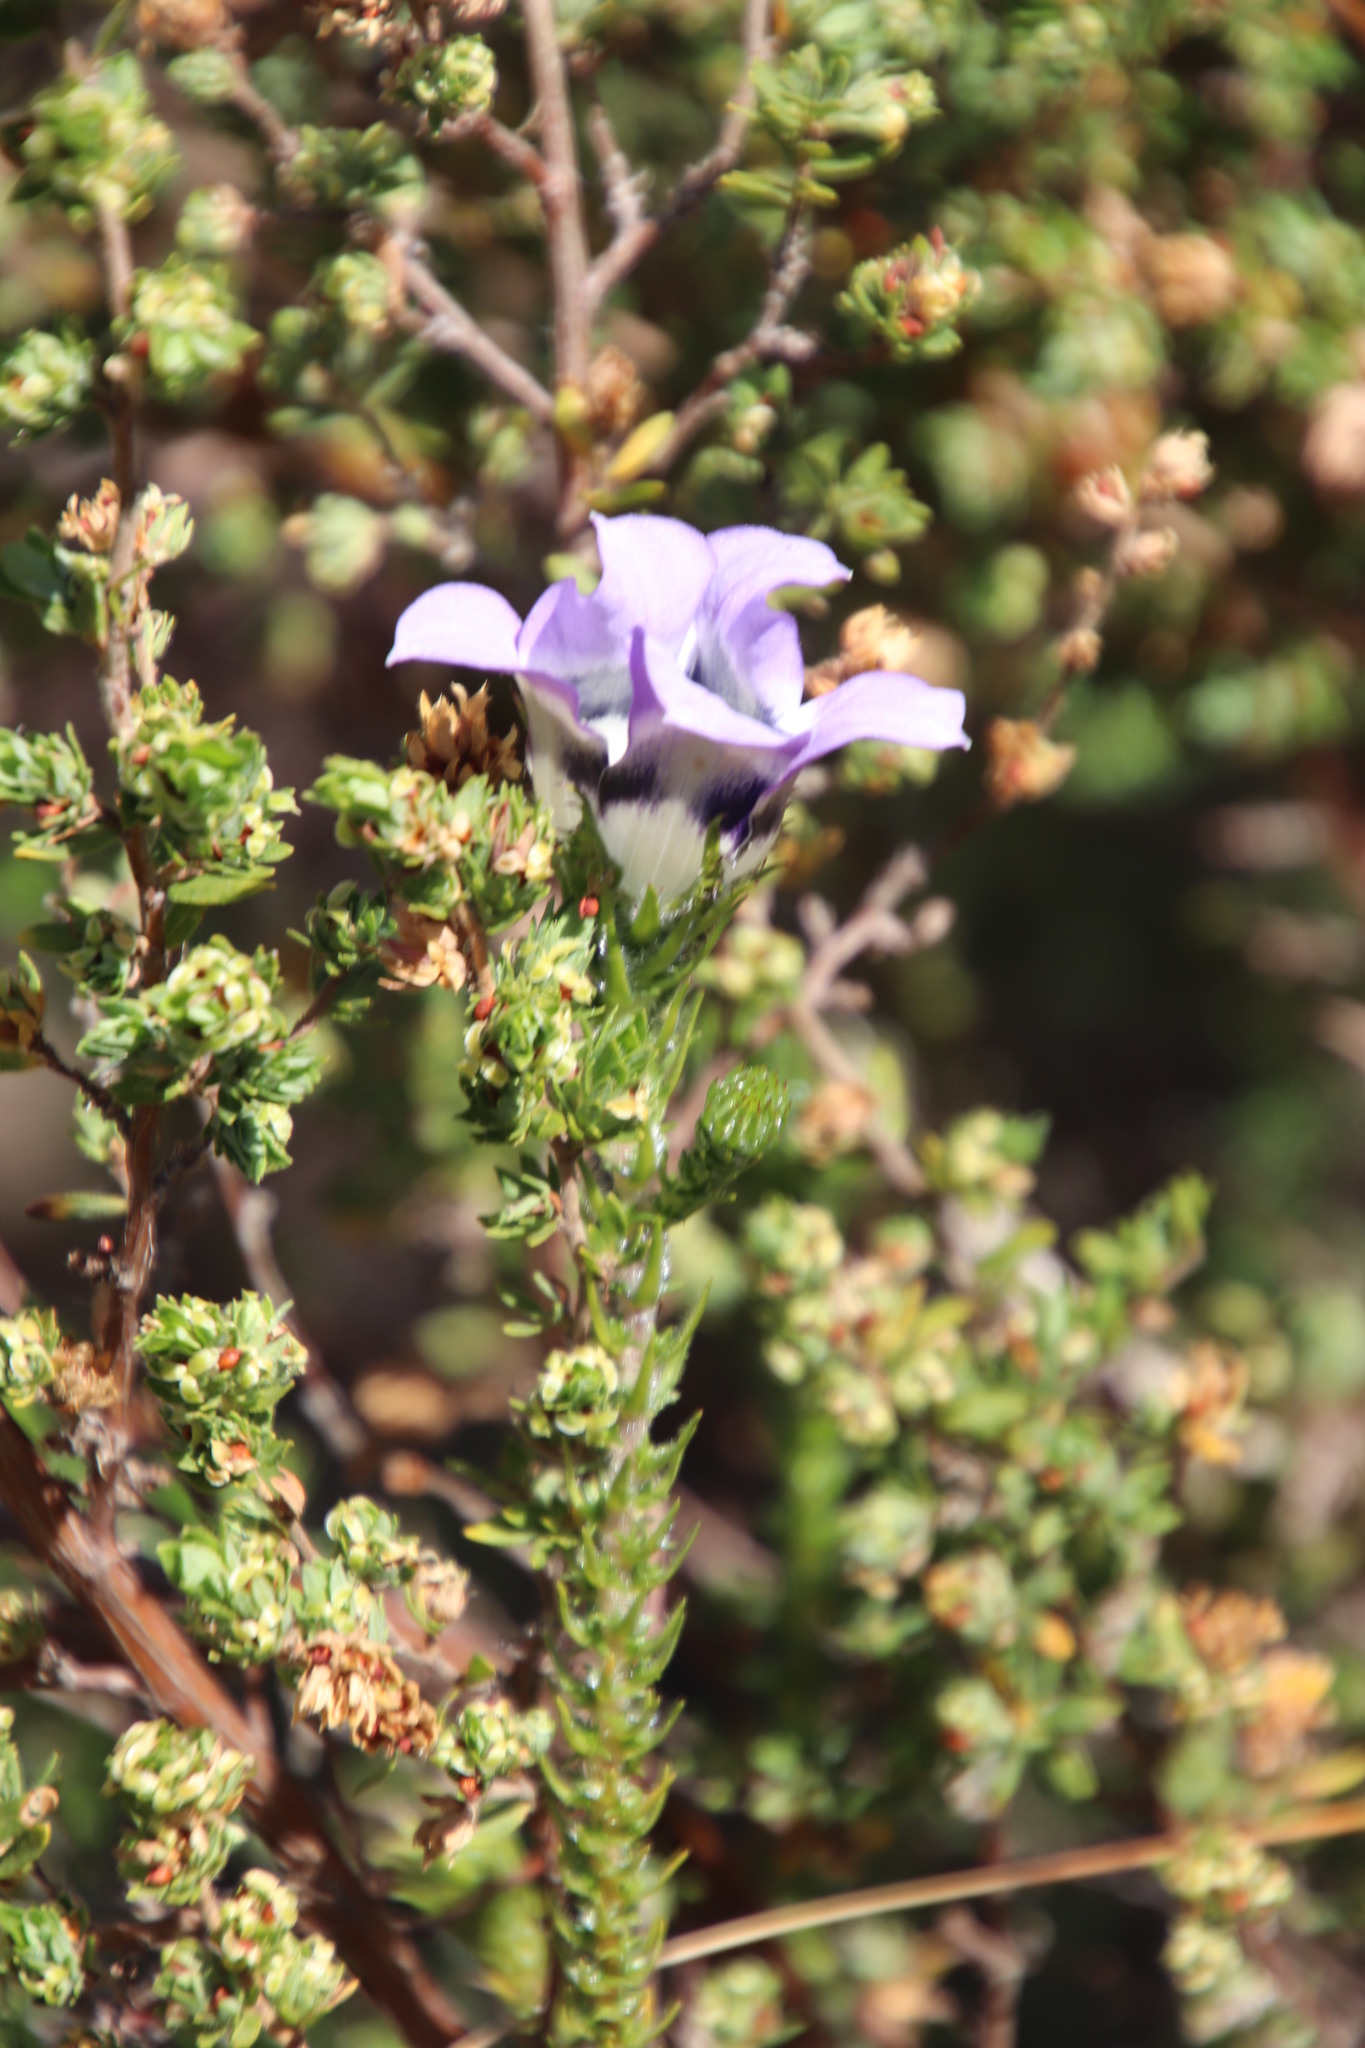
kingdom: Plantae
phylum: Tracheophyta
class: Magnoliopsida
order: Asterales
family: Campanulaceae
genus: Roella
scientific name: Roella ciliata
